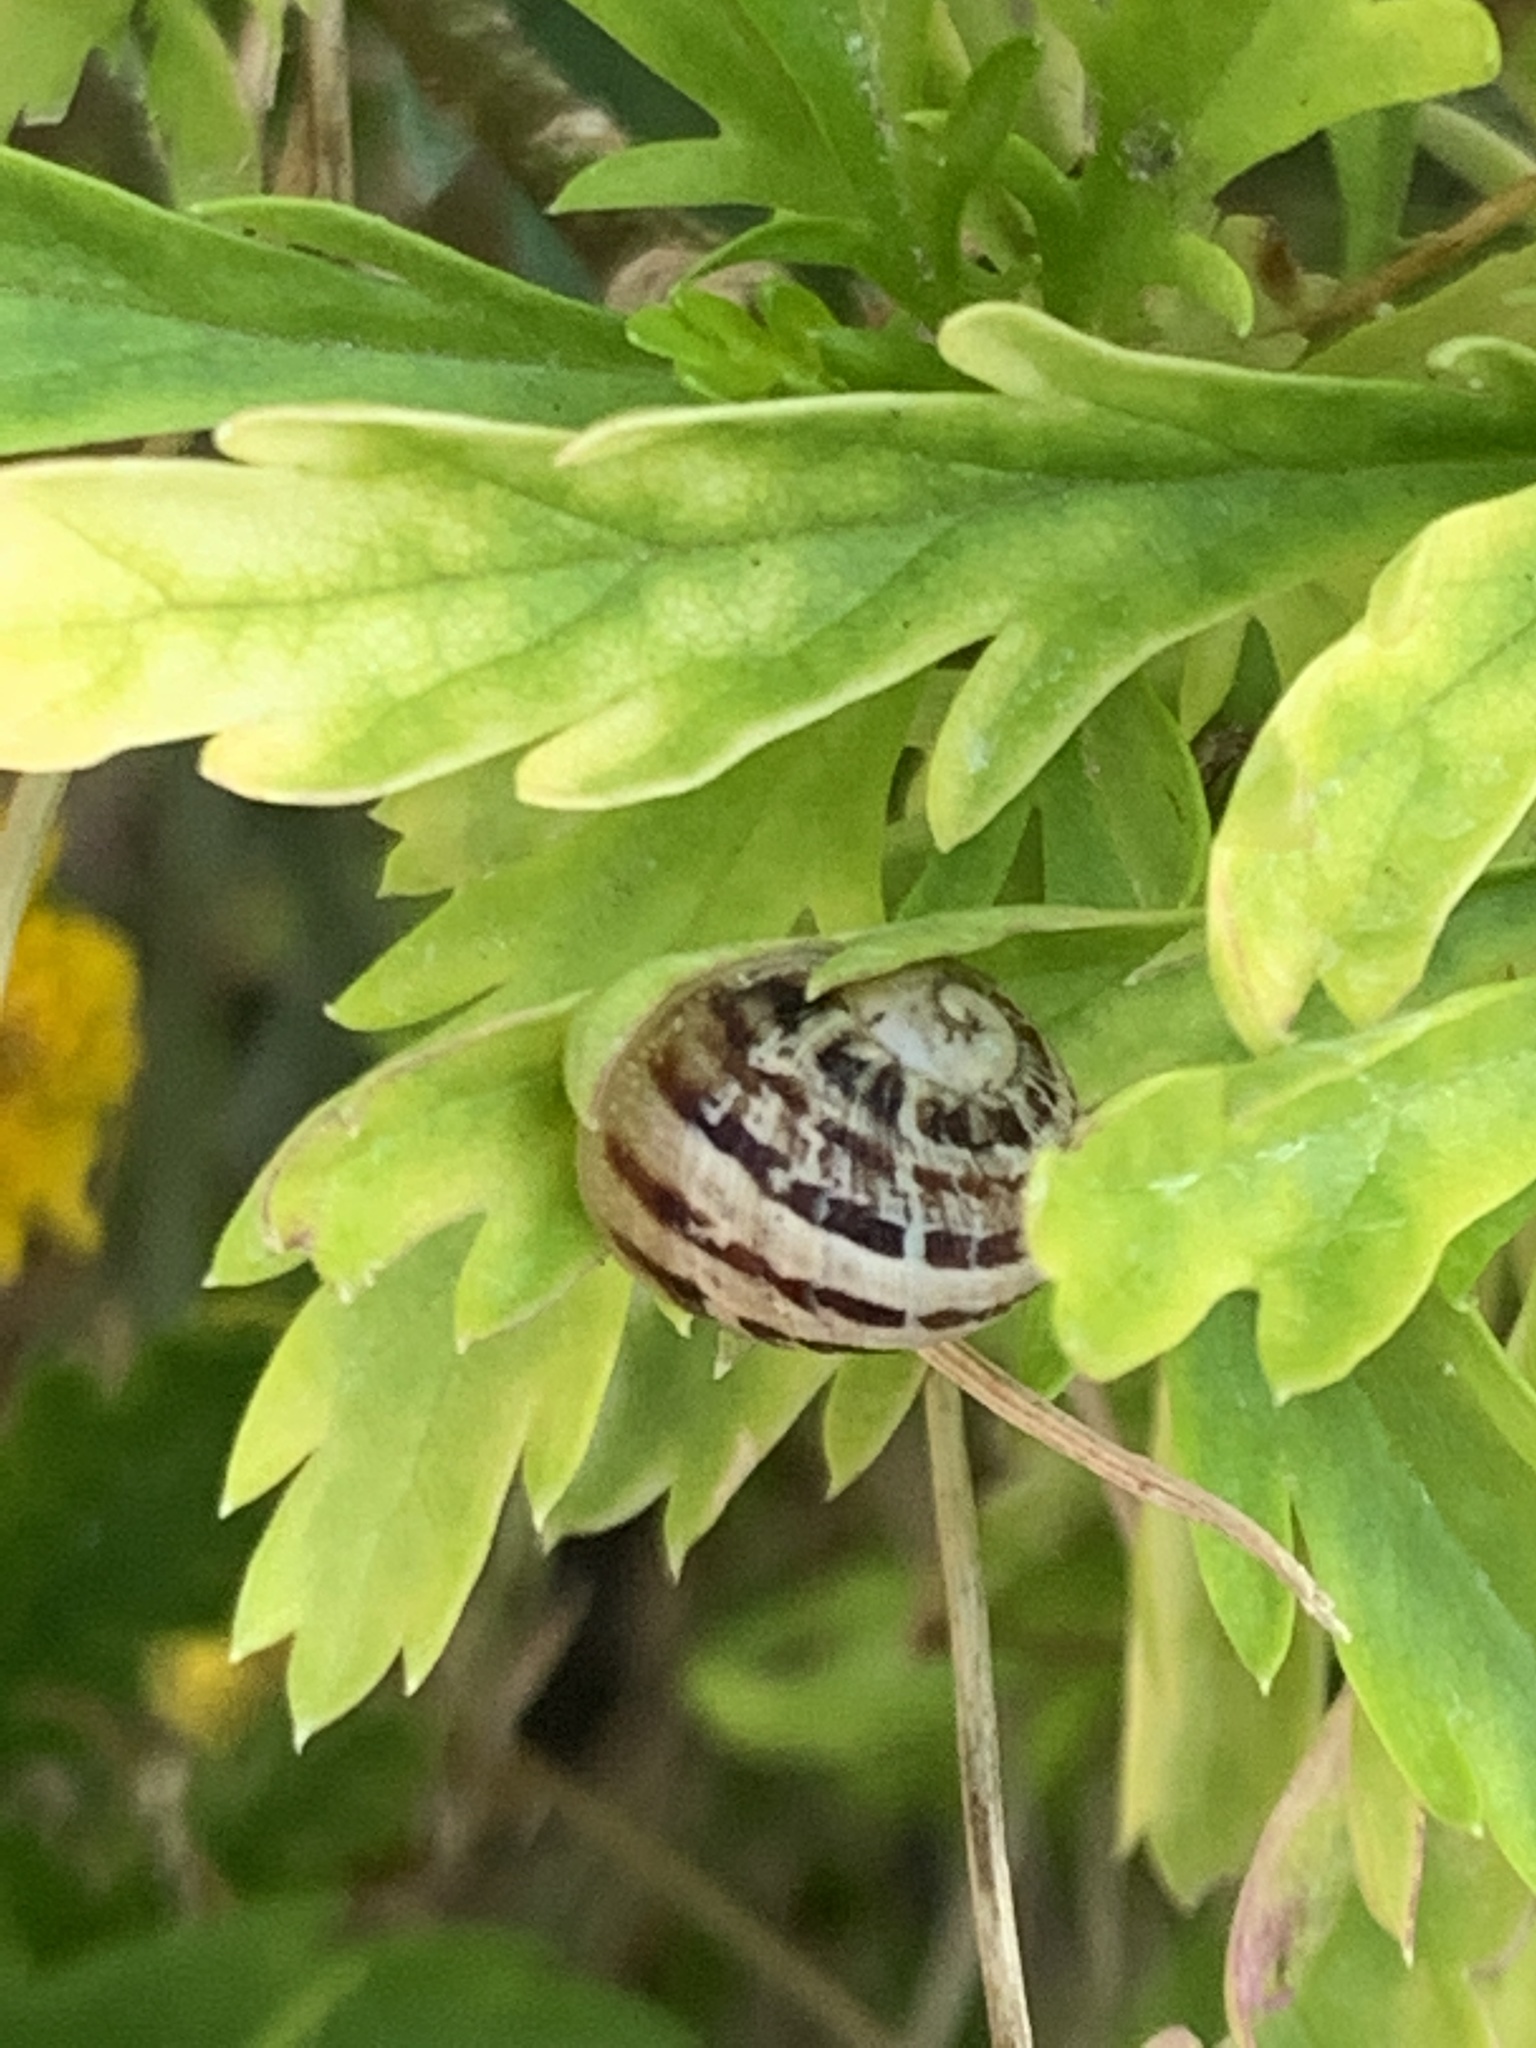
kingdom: Animalia
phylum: Mollusca
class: Gastropoda
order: Stylommatophora
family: Helicidae
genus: Cornu
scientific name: Cornu aspersum
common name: Brown garden snail
